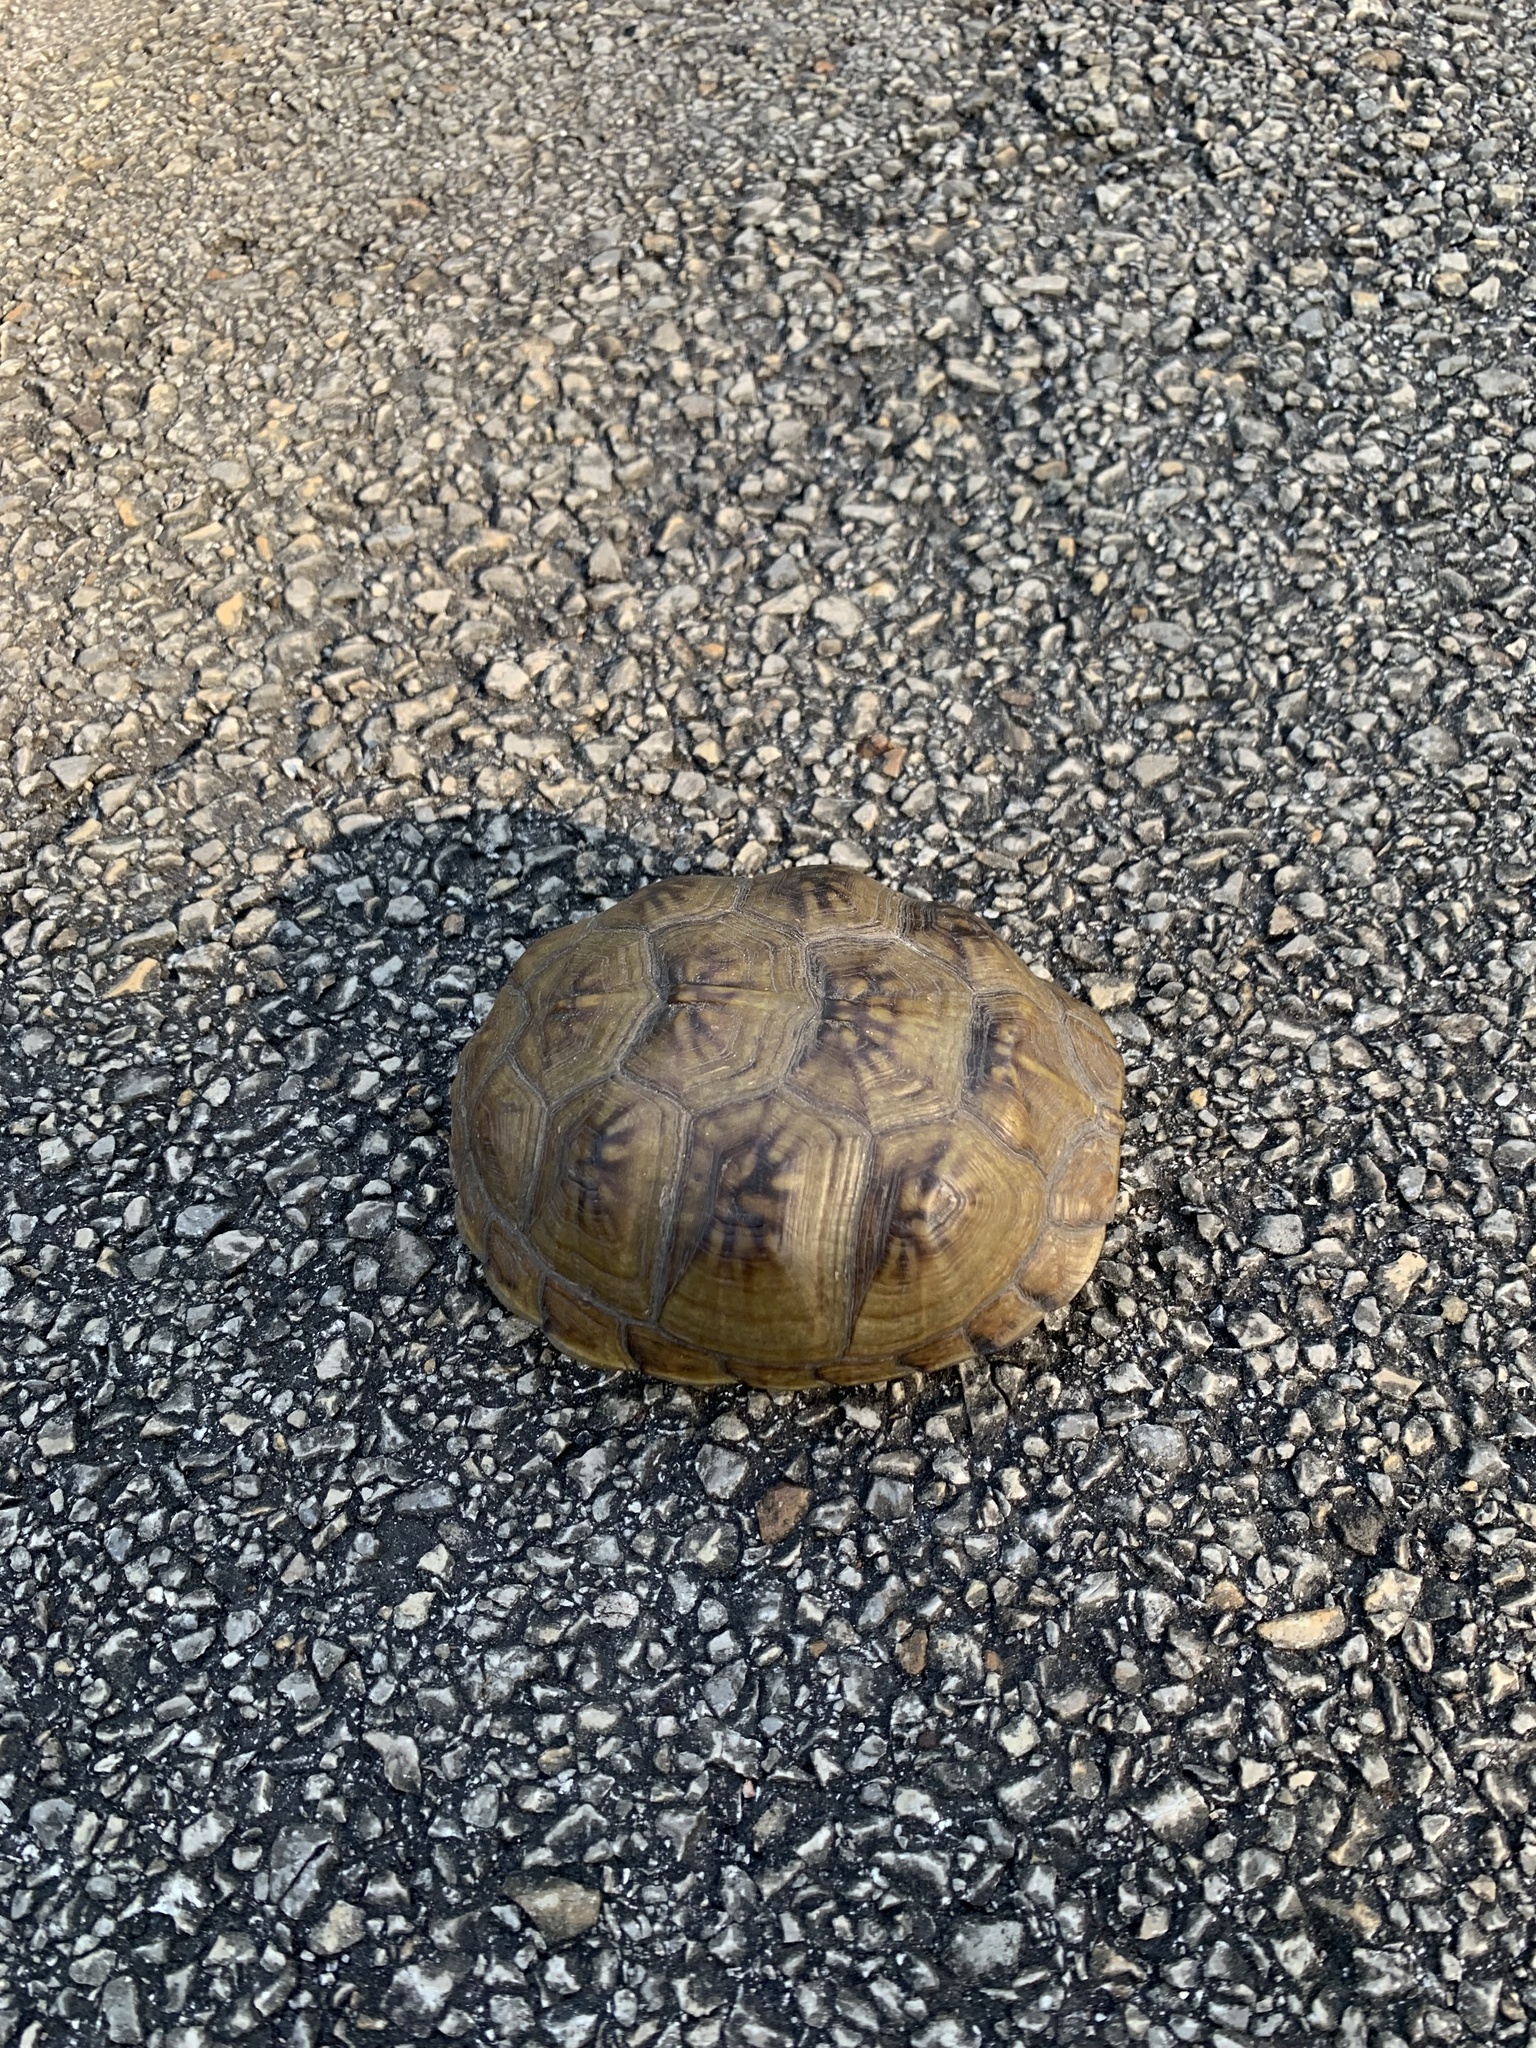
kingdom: Animalia
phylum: Chordata
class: Testudines
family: Emydidae
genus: Terrapene
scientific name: Terrapene carolina
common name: Common box turtle
